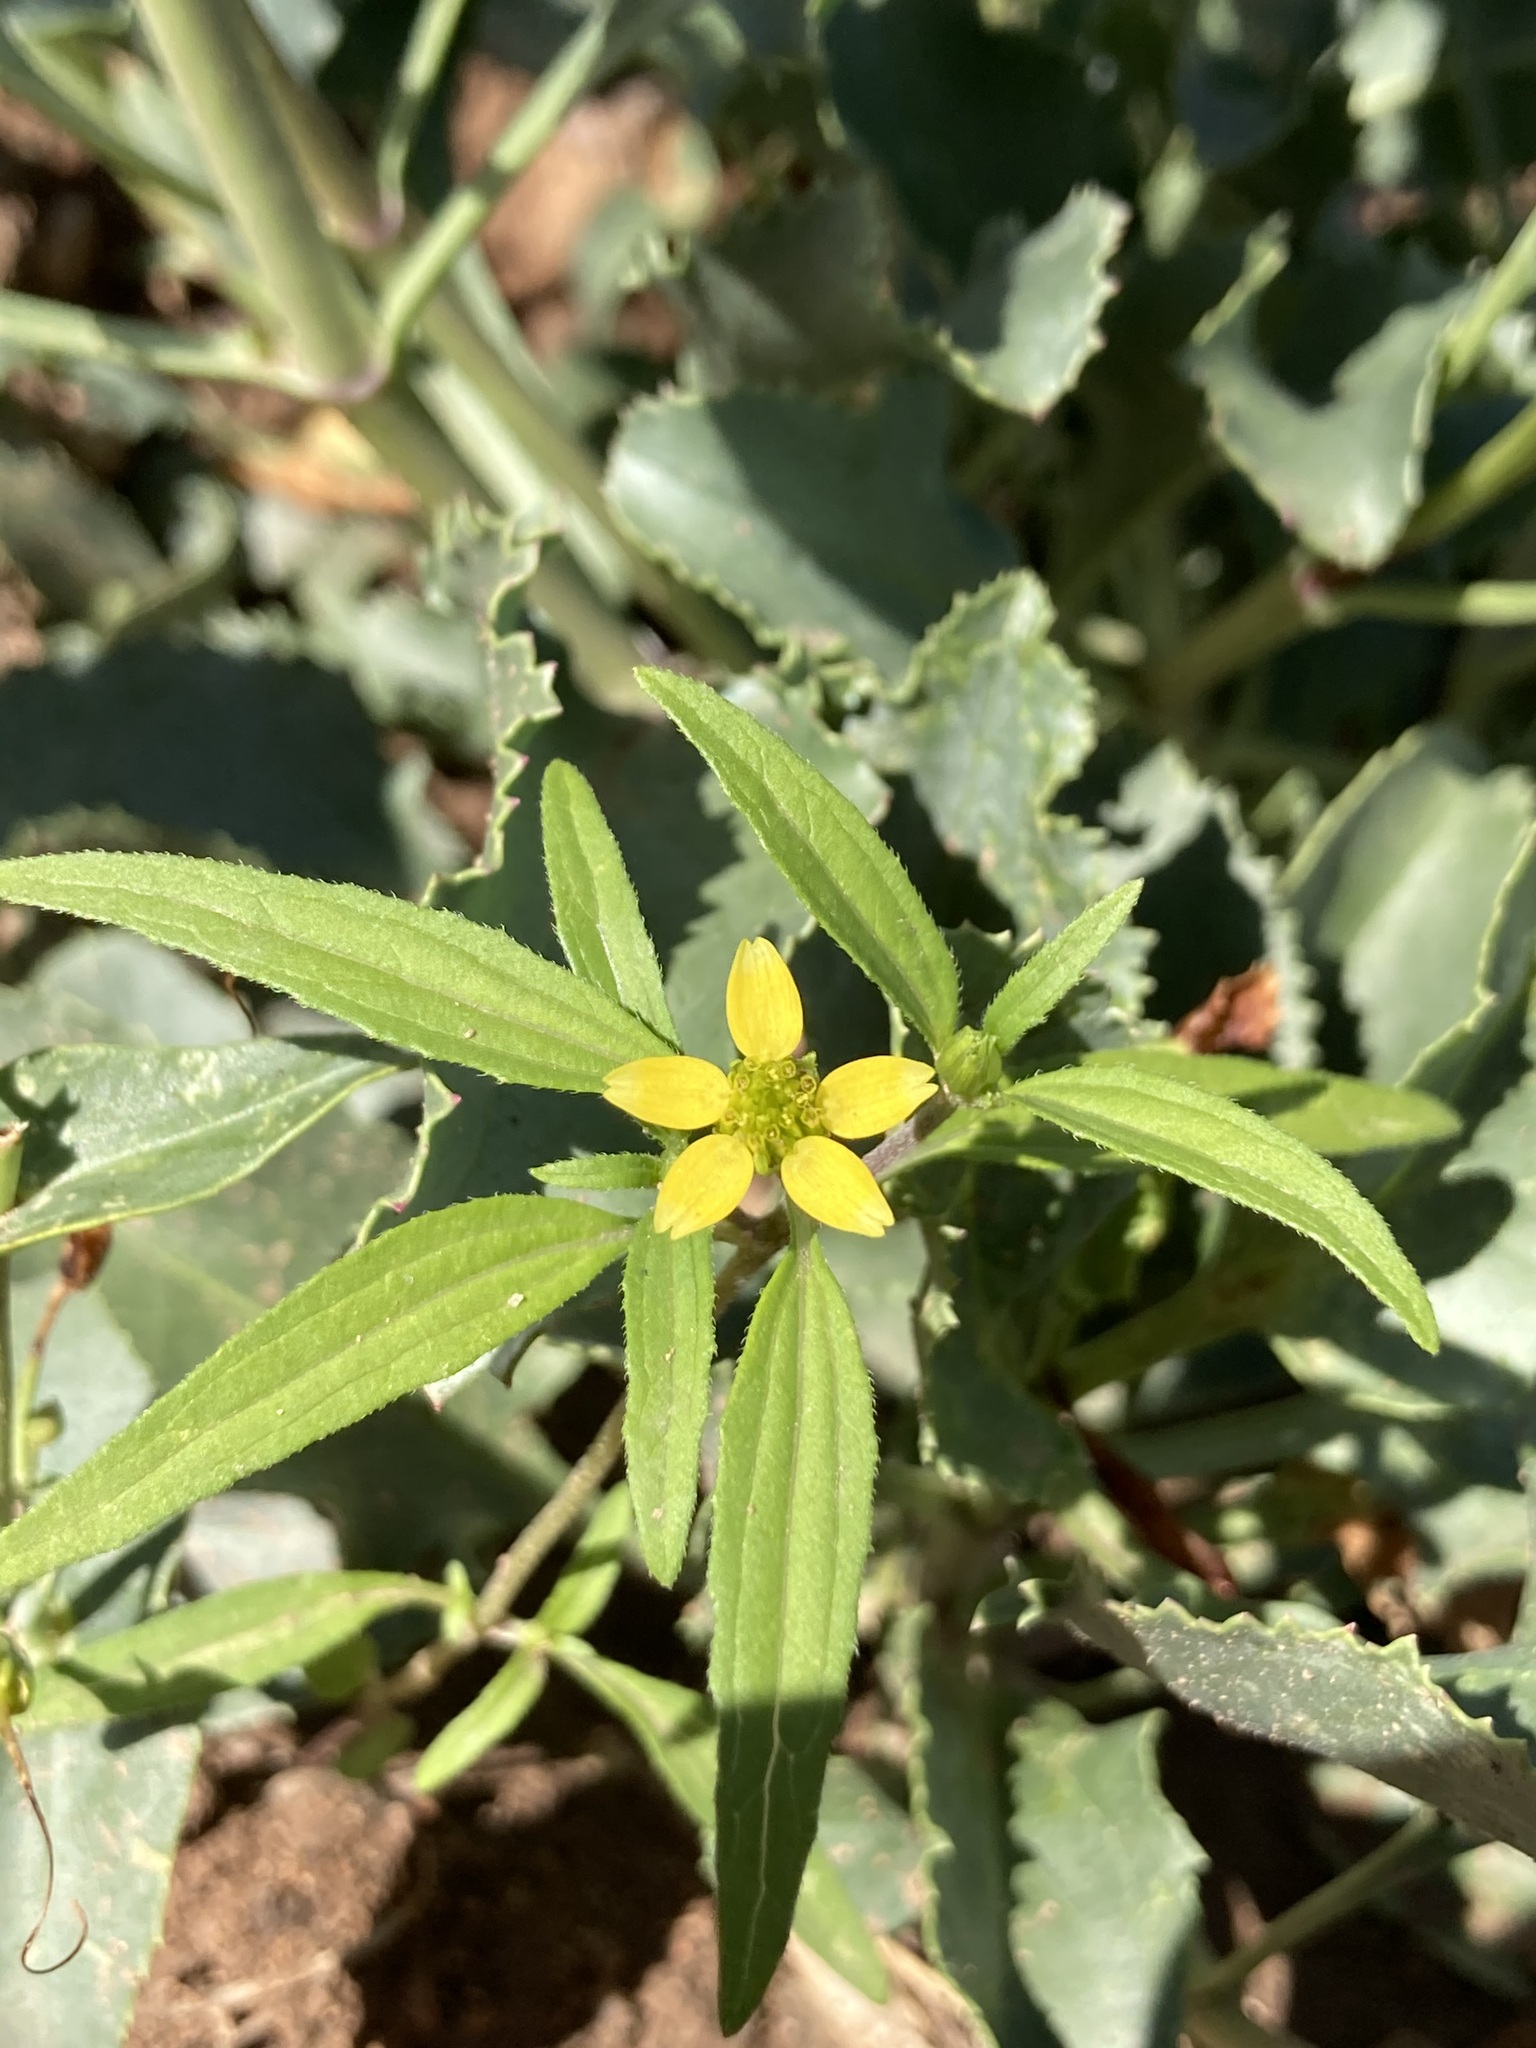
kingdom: Plantae
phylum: Tracheophyta
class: Magnoliopsida
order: Asterales
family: Asteraceae
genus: Sanvitalia
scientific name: Sanvitalia abertii
